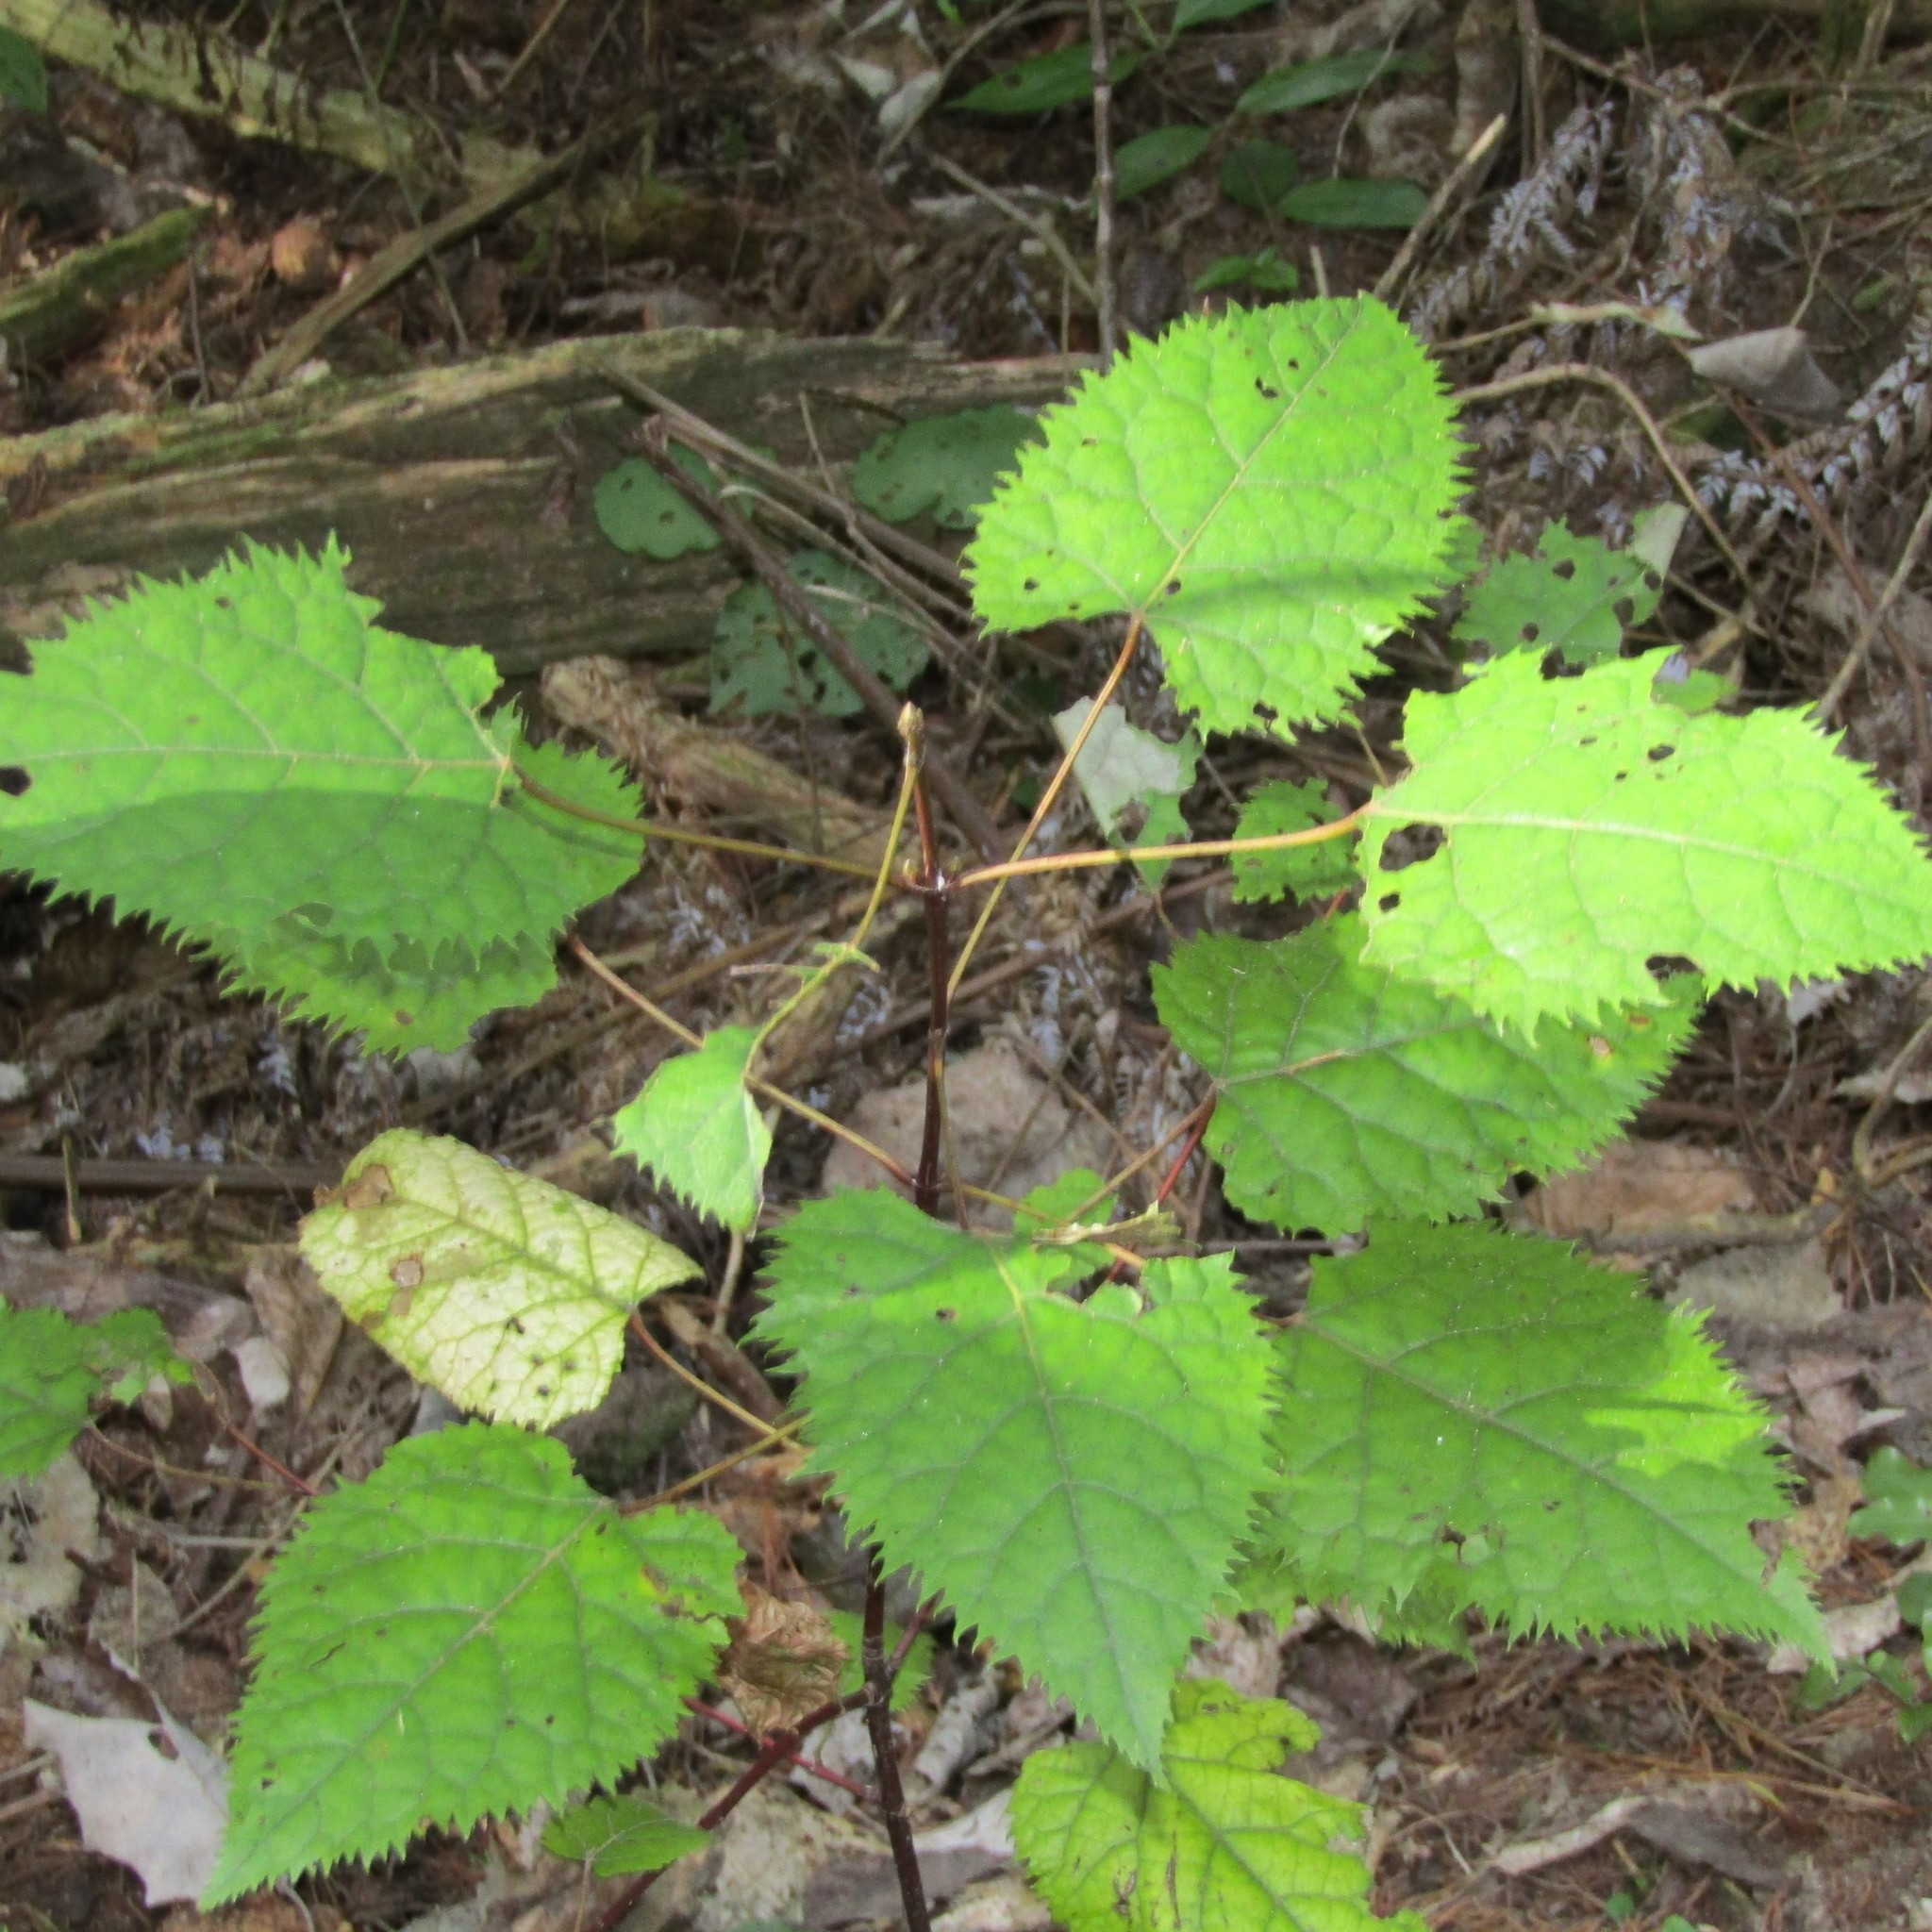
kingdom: Plantae
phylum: Tracheophyta
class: Magnoliopsida
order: Oxalidales
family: Elaeocarpaceae
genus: Aristotelia
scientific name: Aristotelia serrata
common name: New zealand wineberry
